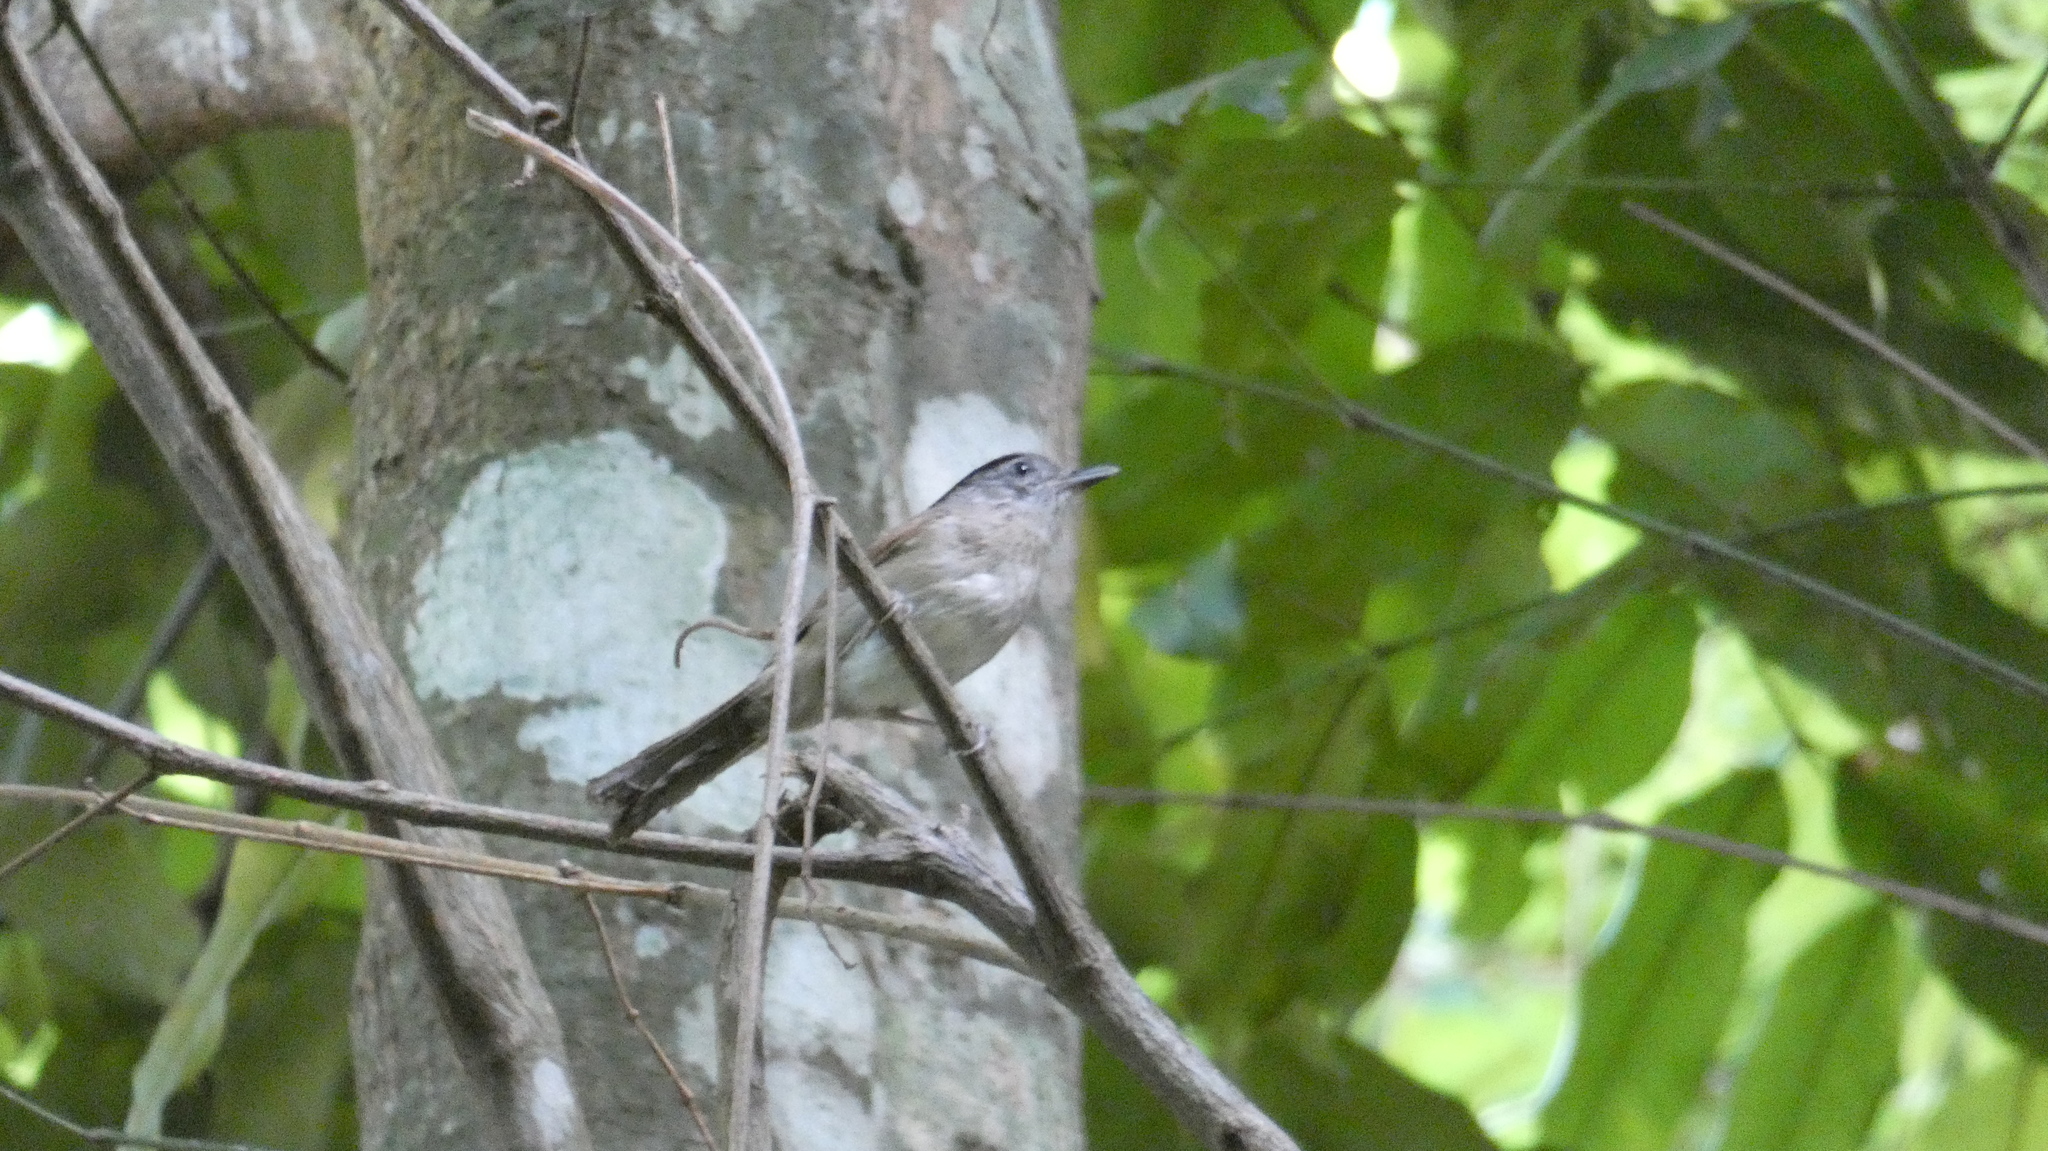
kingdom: Animalia
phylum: Chordata
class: Aves
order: Passeriformes
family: Pellorneidae
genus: Alcippe
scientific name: Alcippe grotei
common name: Black-browed fulvetta
